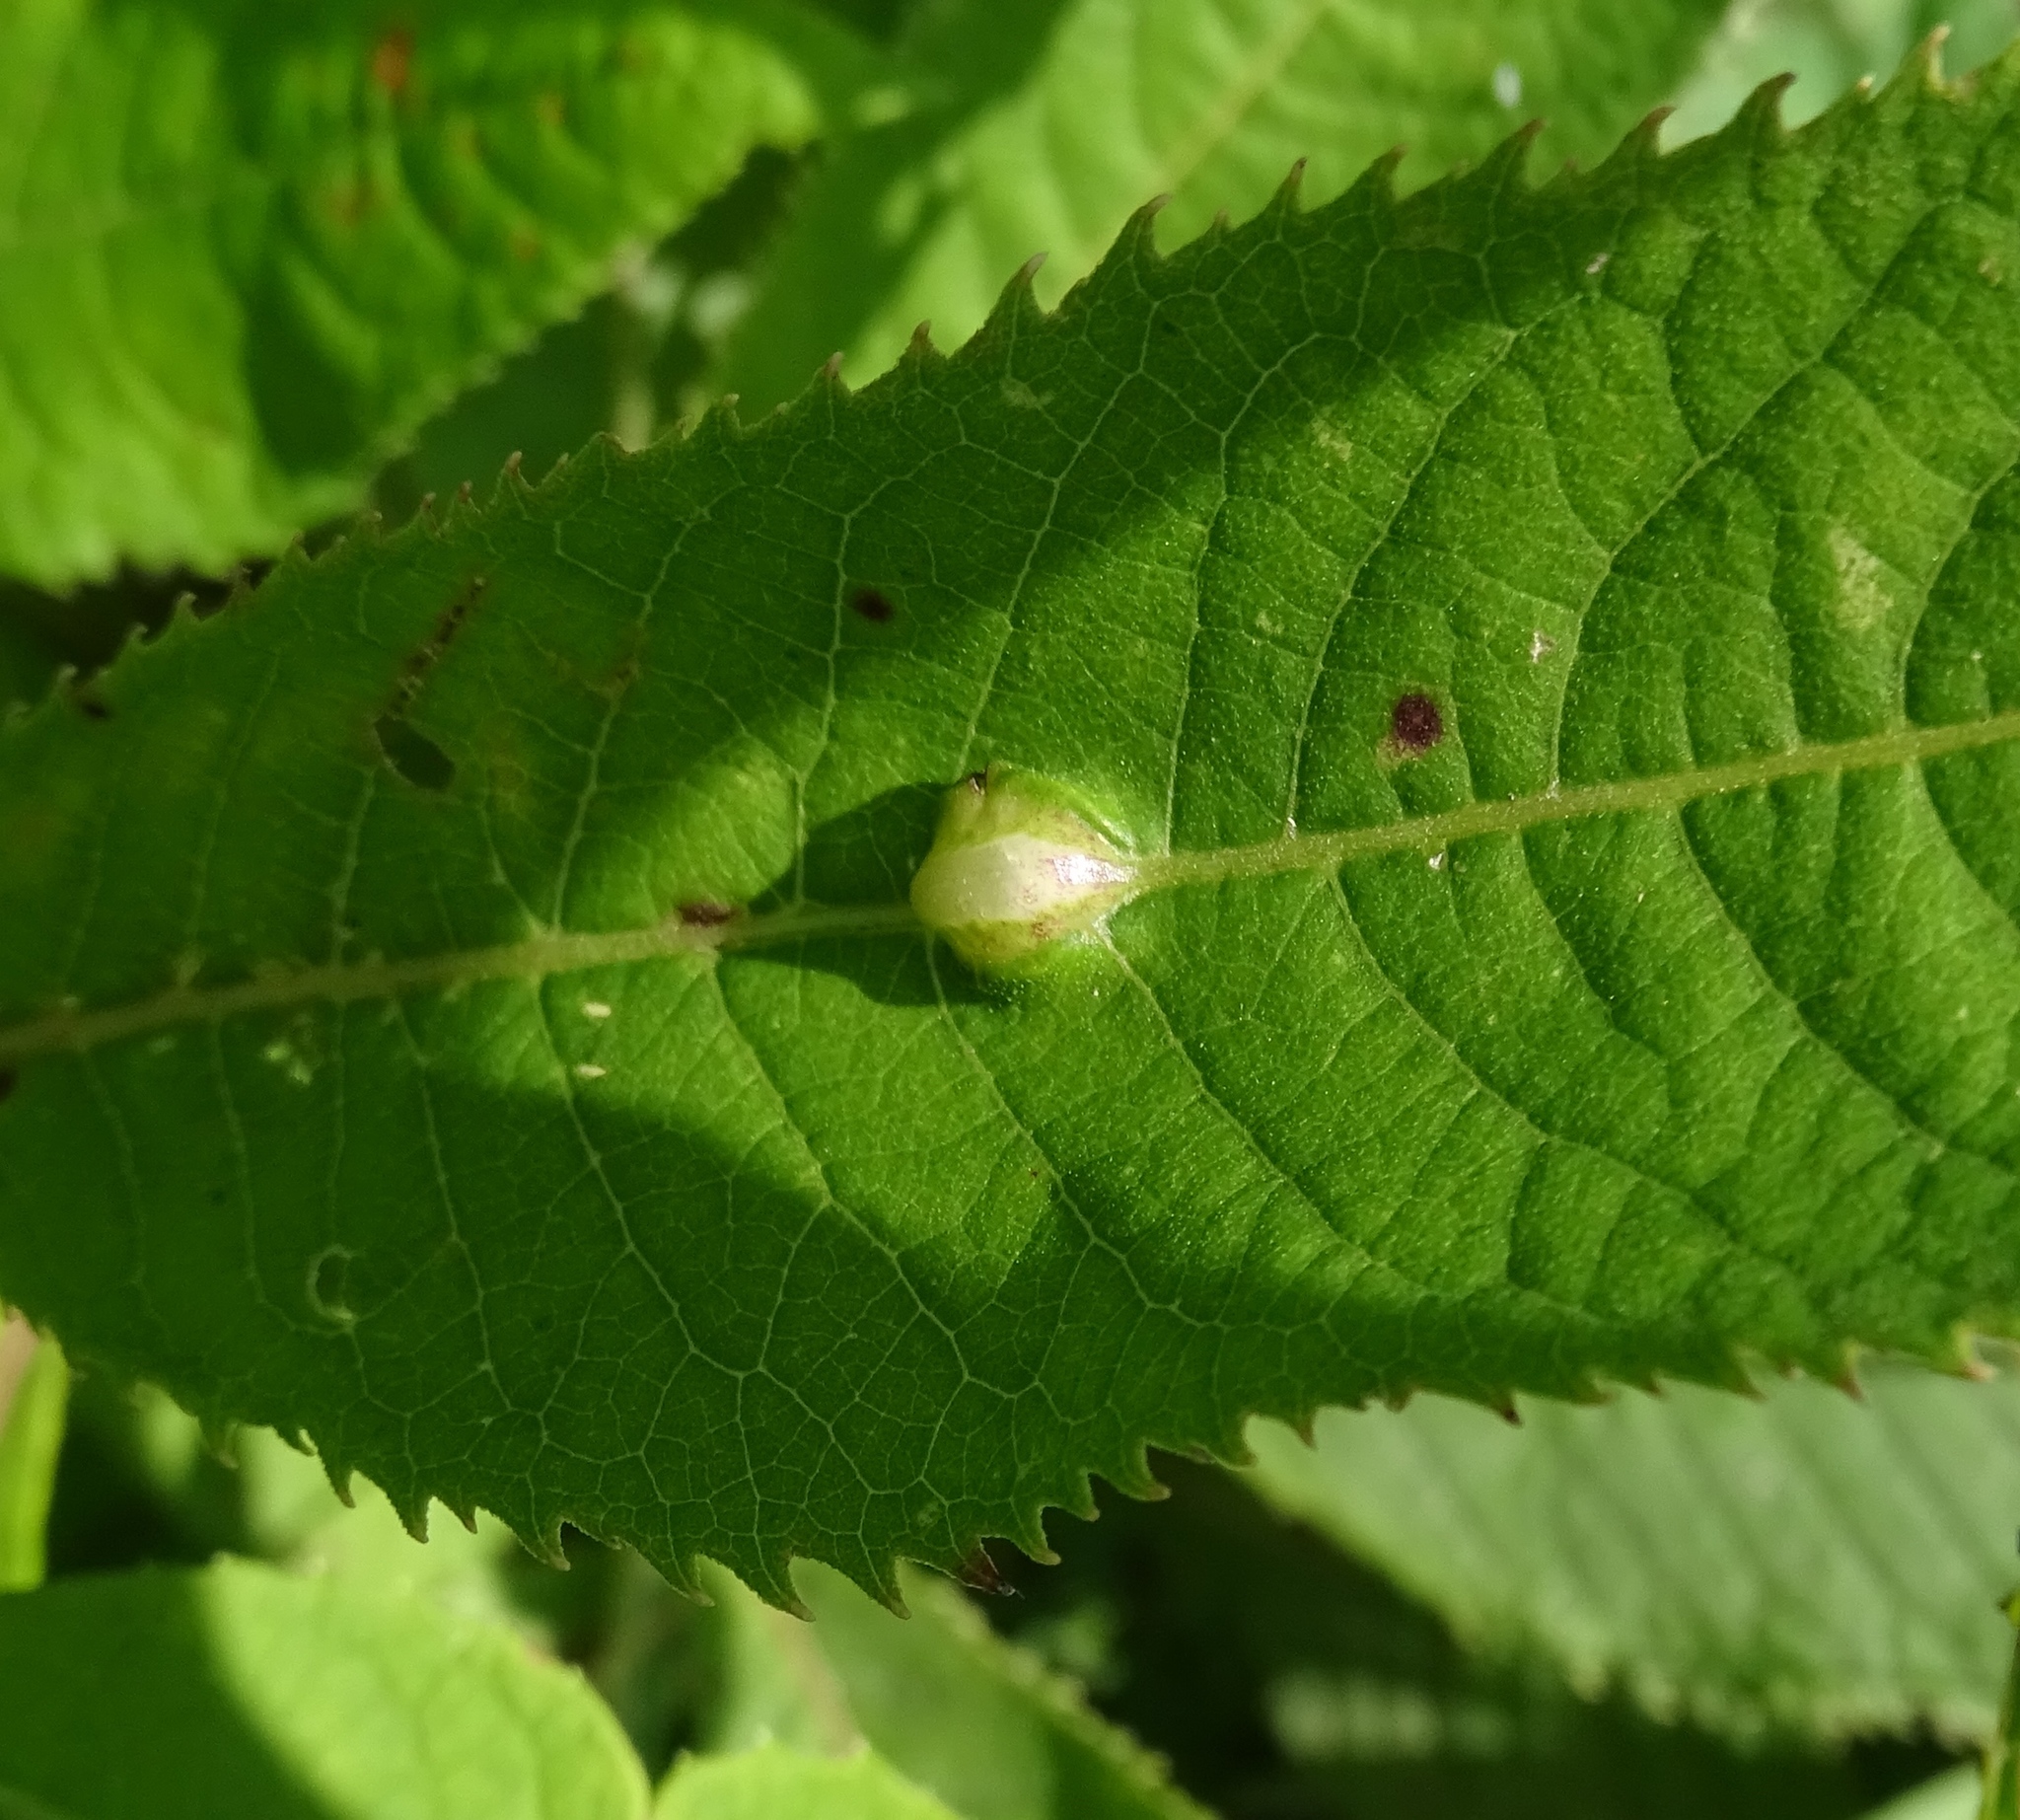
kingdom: Animalia
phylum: Arthropoda
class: Insecta
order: Diptera
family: Cecidomyiidae
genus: Neolasioptera
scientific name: Neolasioptera vernoniae
